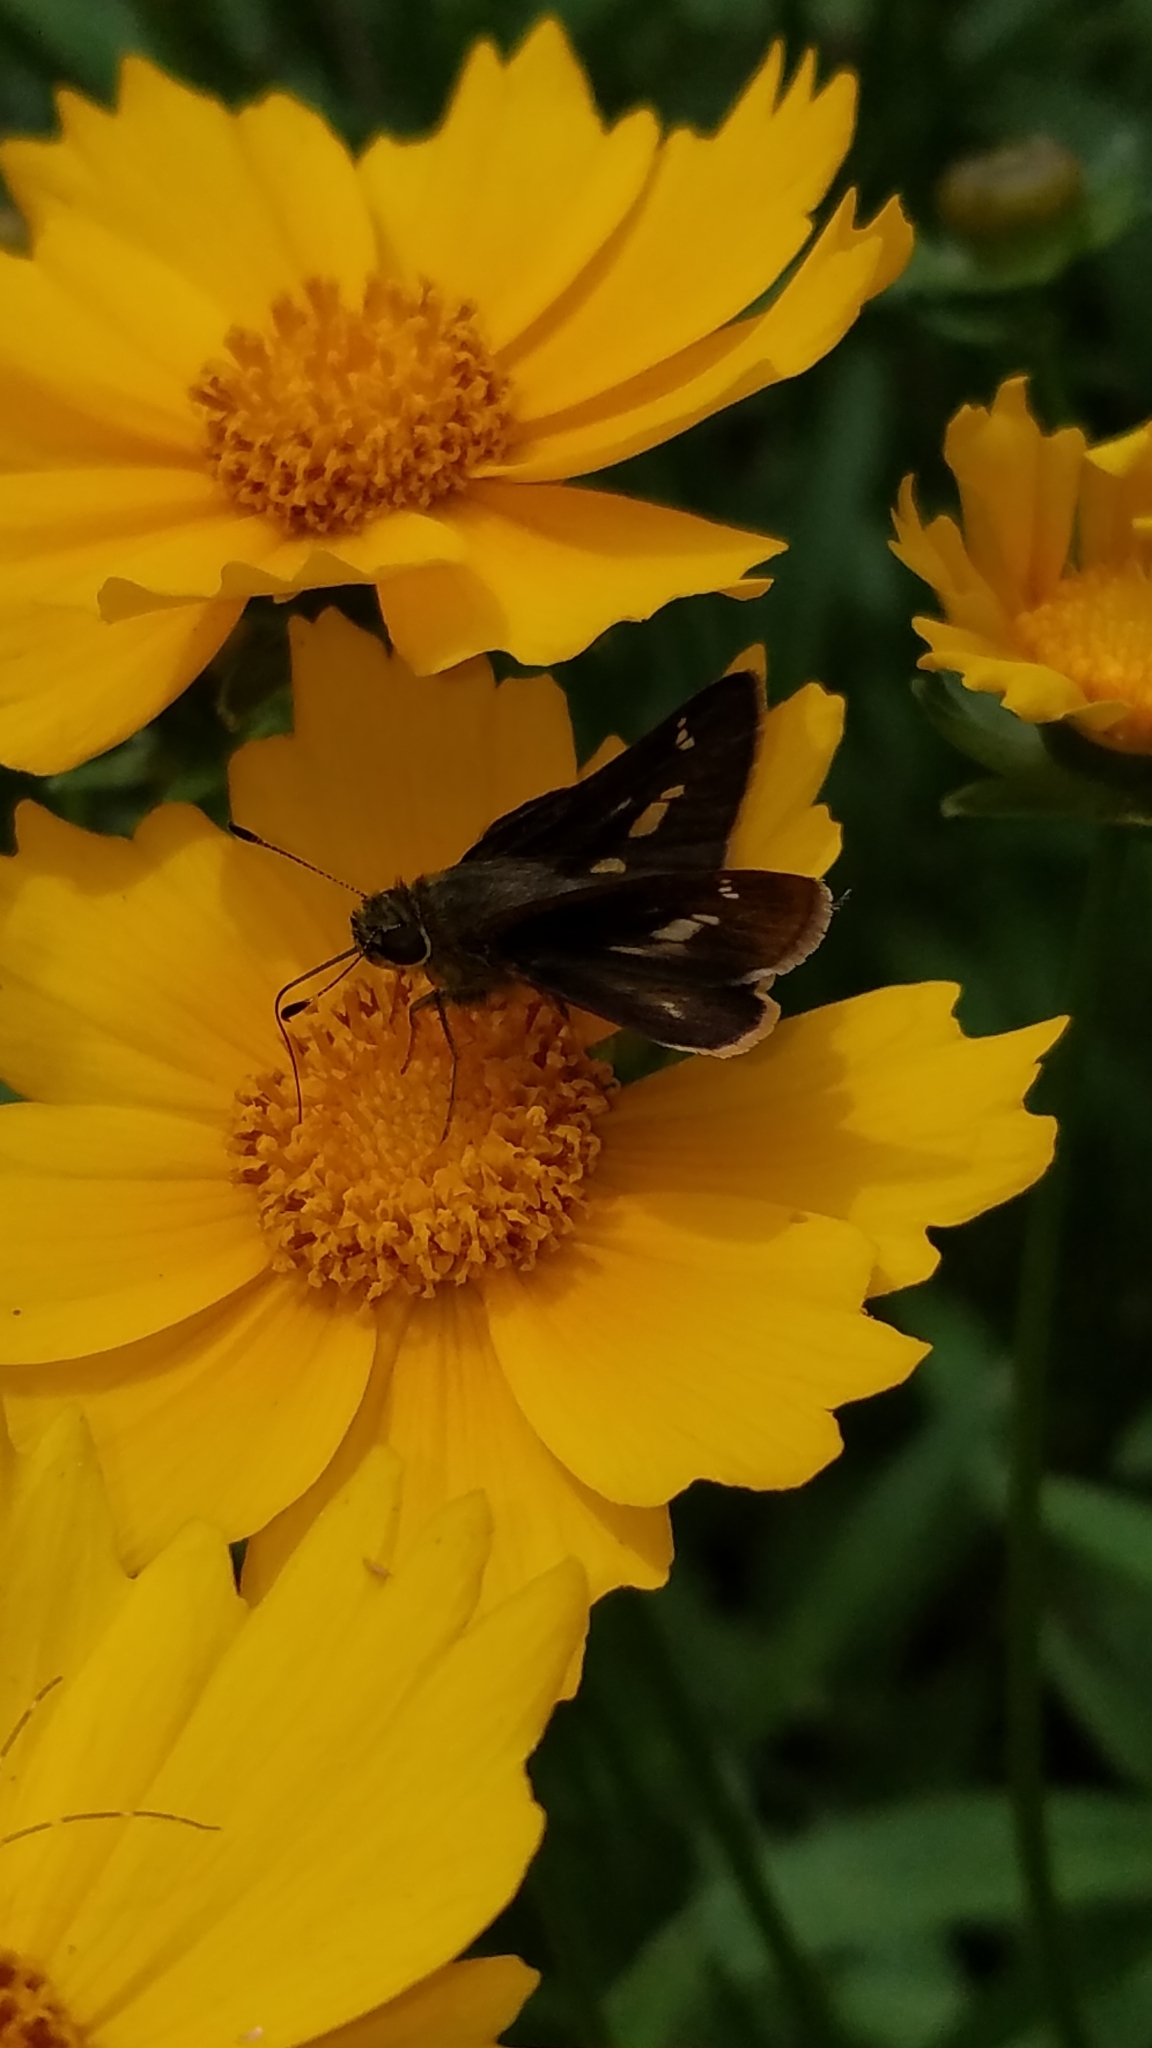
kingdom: Animalia
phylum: Arthropoda
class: Insecta
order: Lepidoptera
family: Hesperiidae
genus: Vernia
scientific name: Vernia verna
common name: Little glassywing
